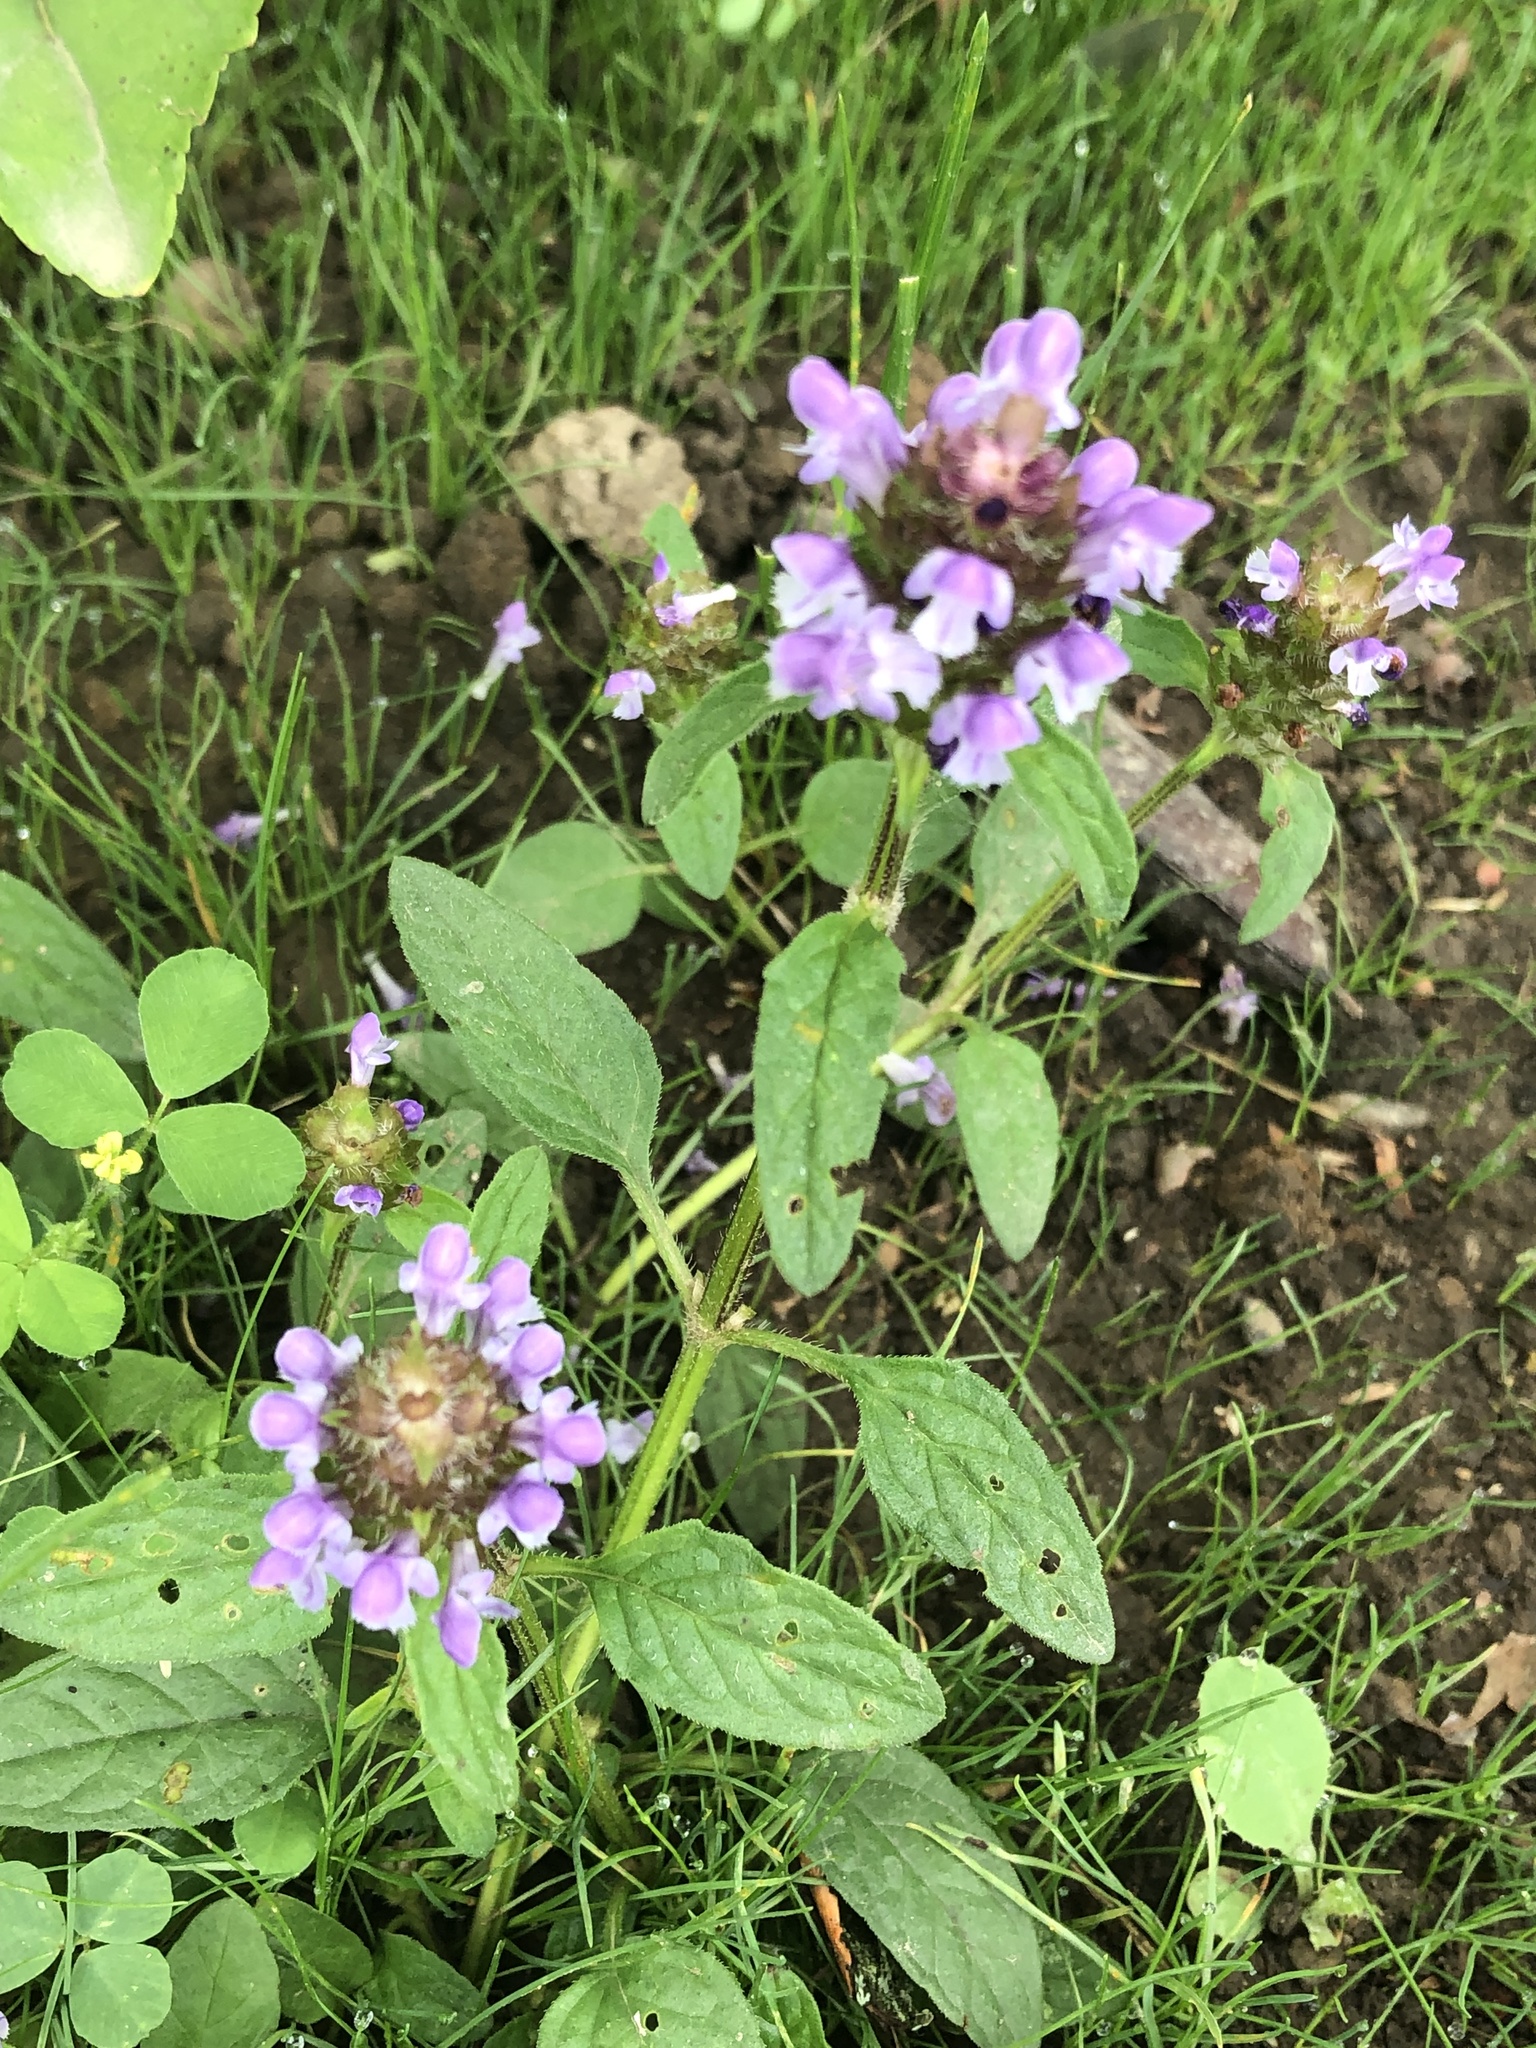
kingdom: Plantae
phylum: Tracheophyta
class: Magnoliopsida
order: Lamiales
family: Lamiaceae
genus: Prunella
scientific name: Prunella vulgaris
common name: Heal-all
